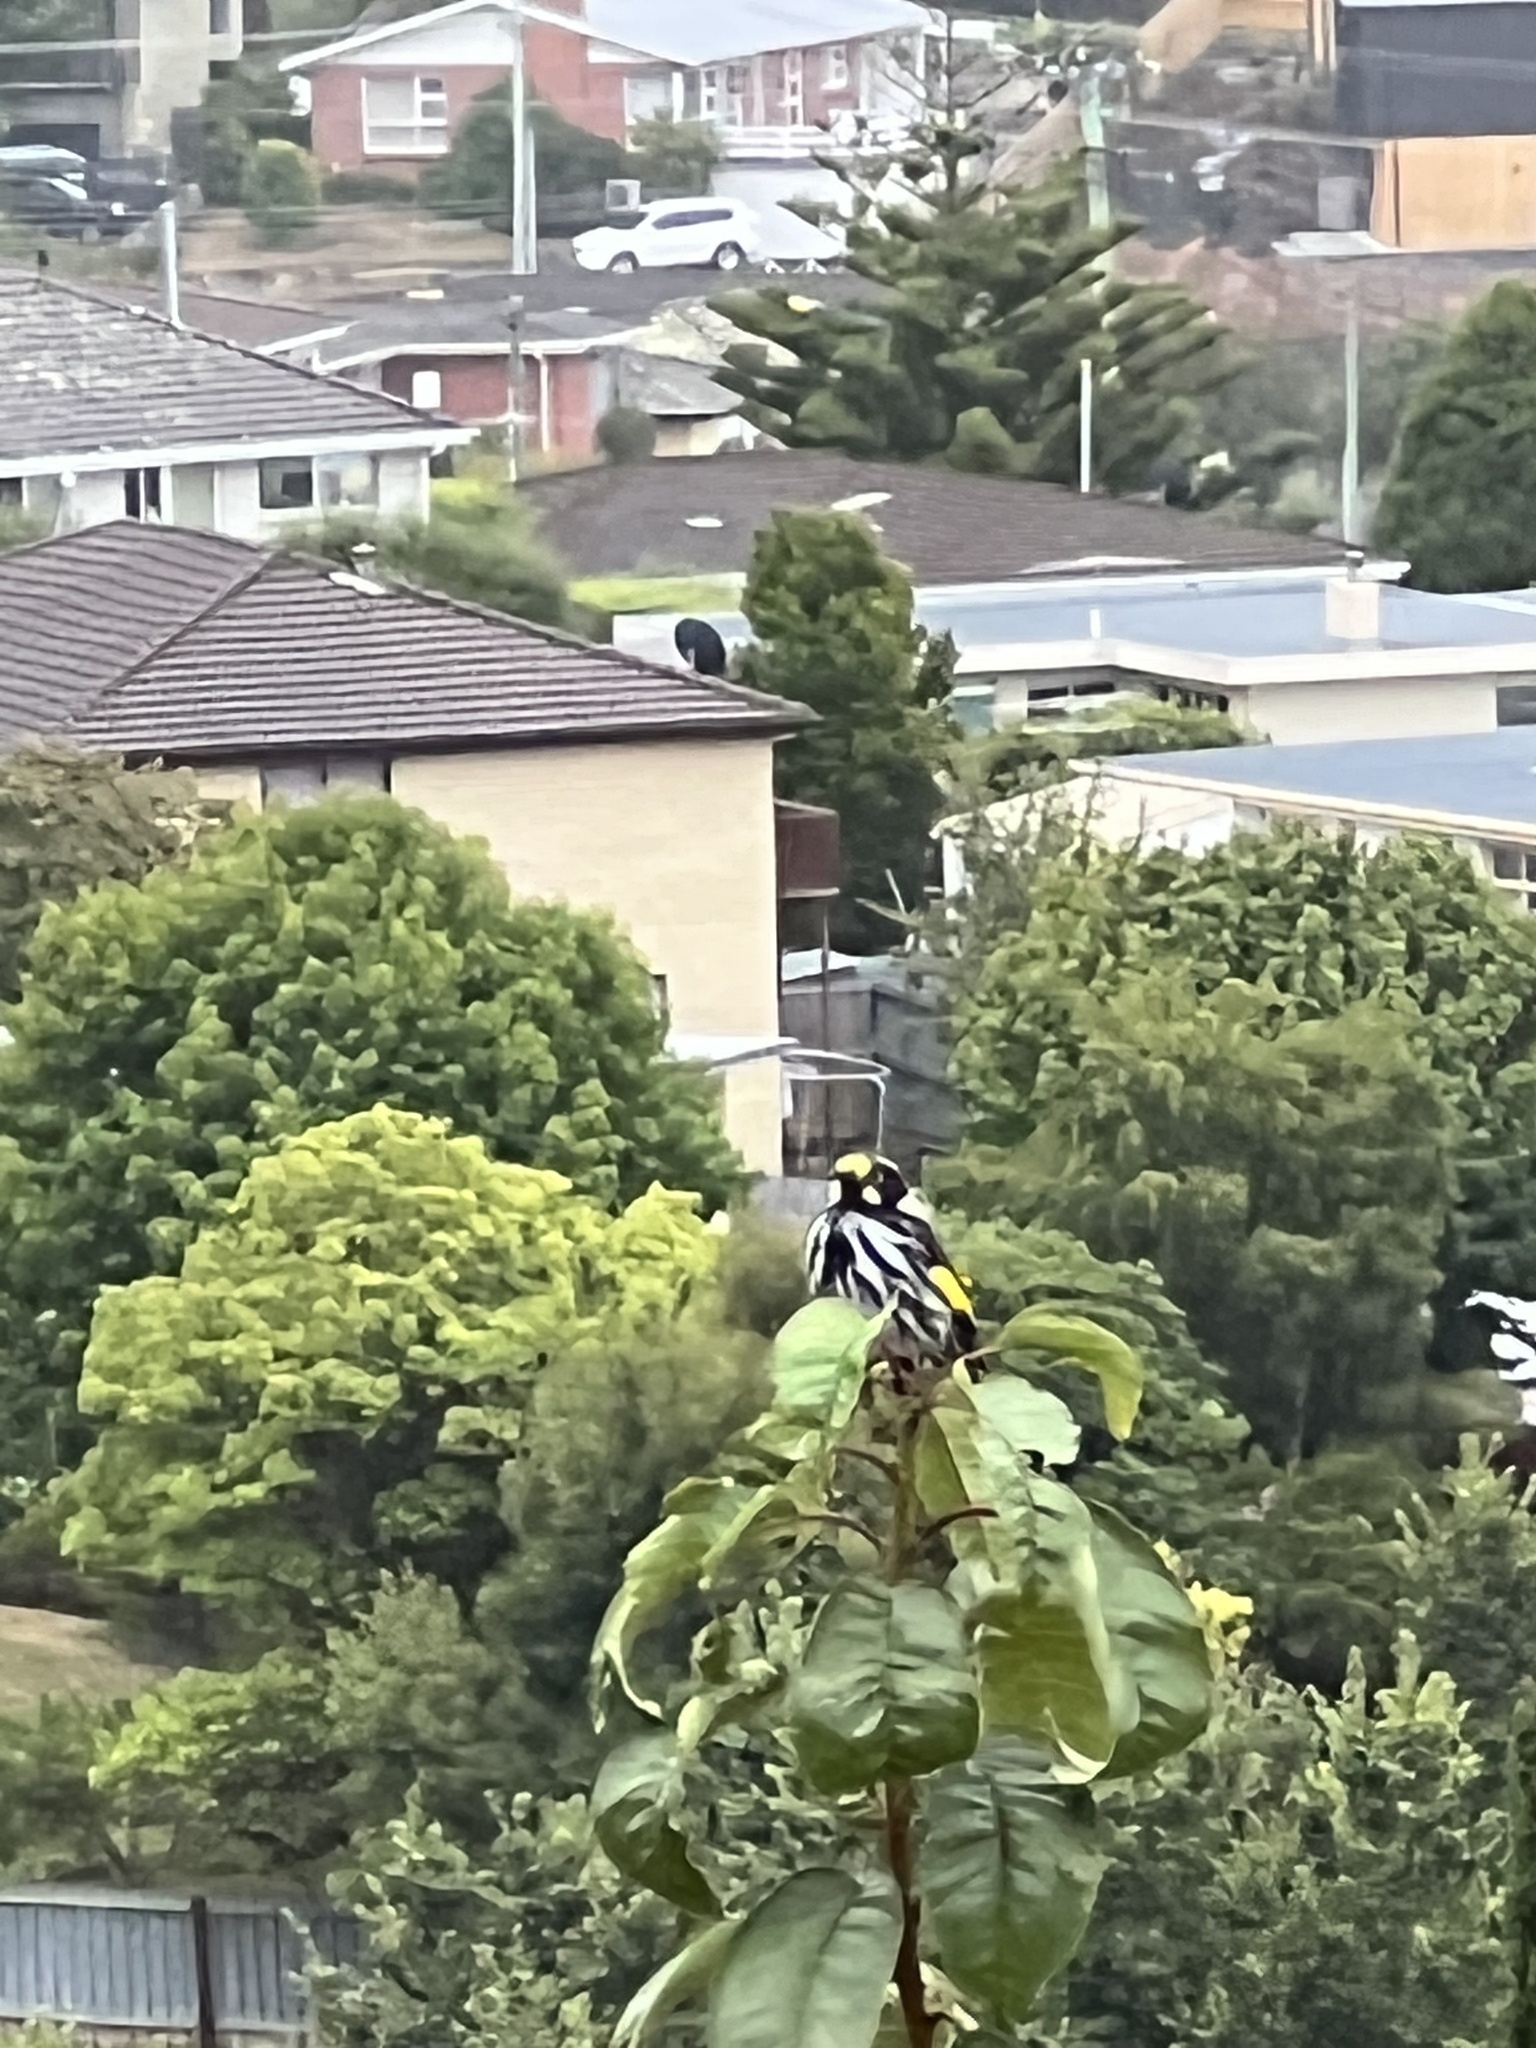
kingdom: Animalia
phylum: Chordata
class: Aves
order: Passeriformes
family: Meliphagidae
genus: Phylidonyris
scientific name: Phylidonyris novaehollandiae
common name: New holland honeyeater
